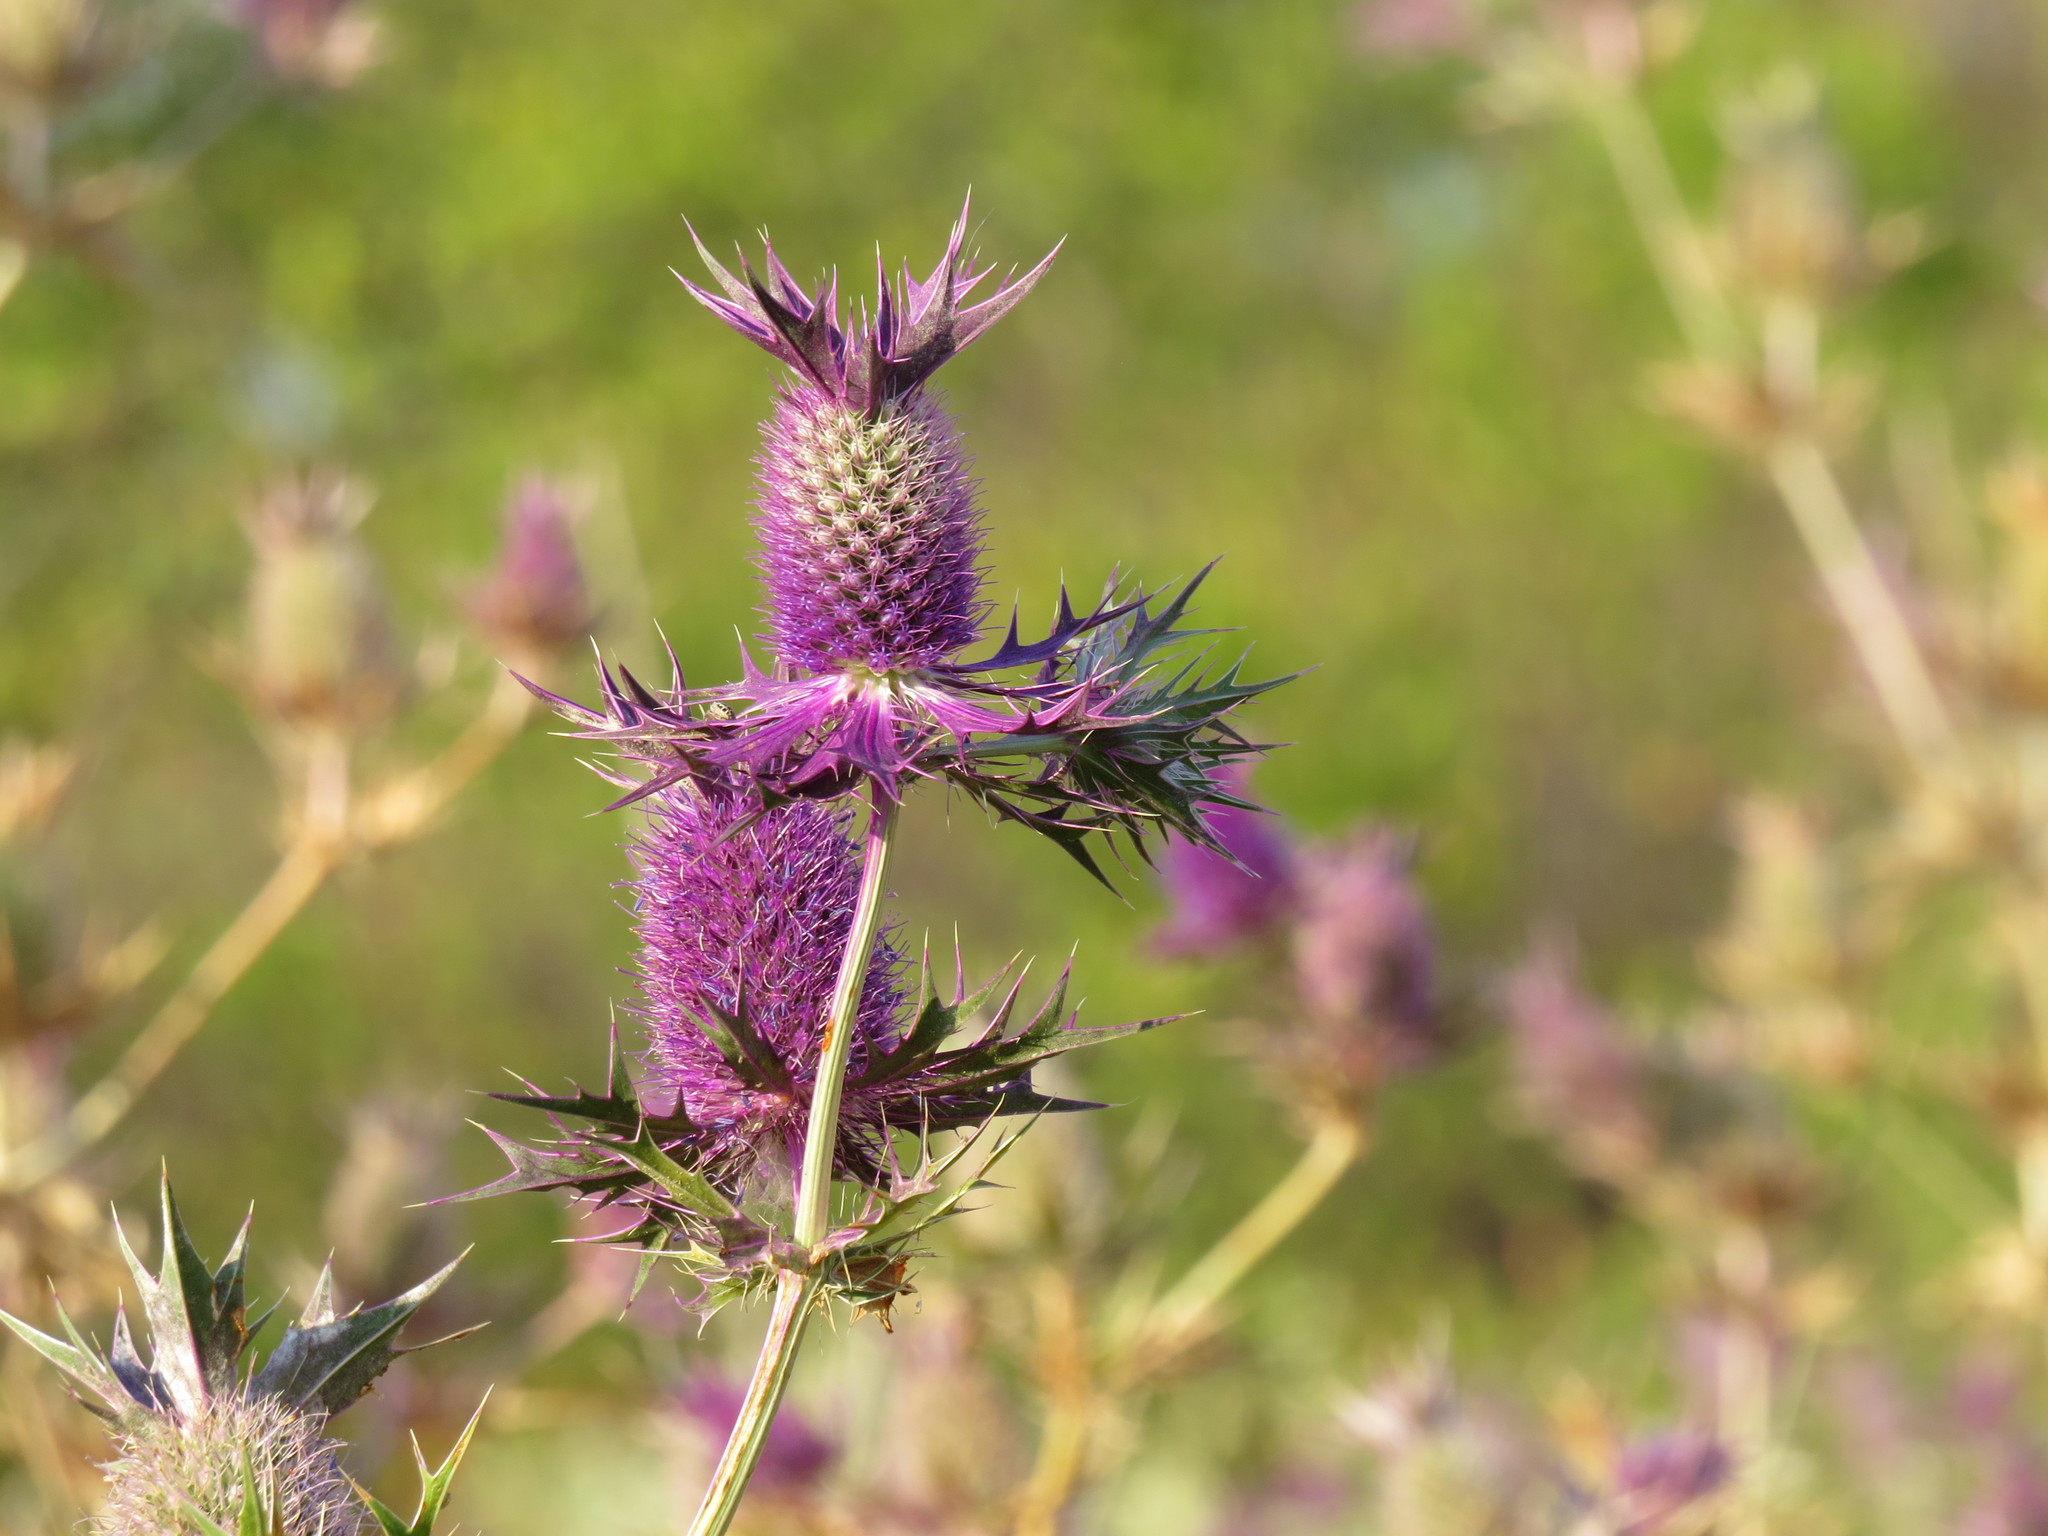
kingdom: Plantae
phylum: Tracheophyta
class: Magnoliopsida
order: Apiales
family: Apiaceae
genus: Eryngium
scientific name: Eryngium leavenworthii
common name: Leavenworth's eryngo
